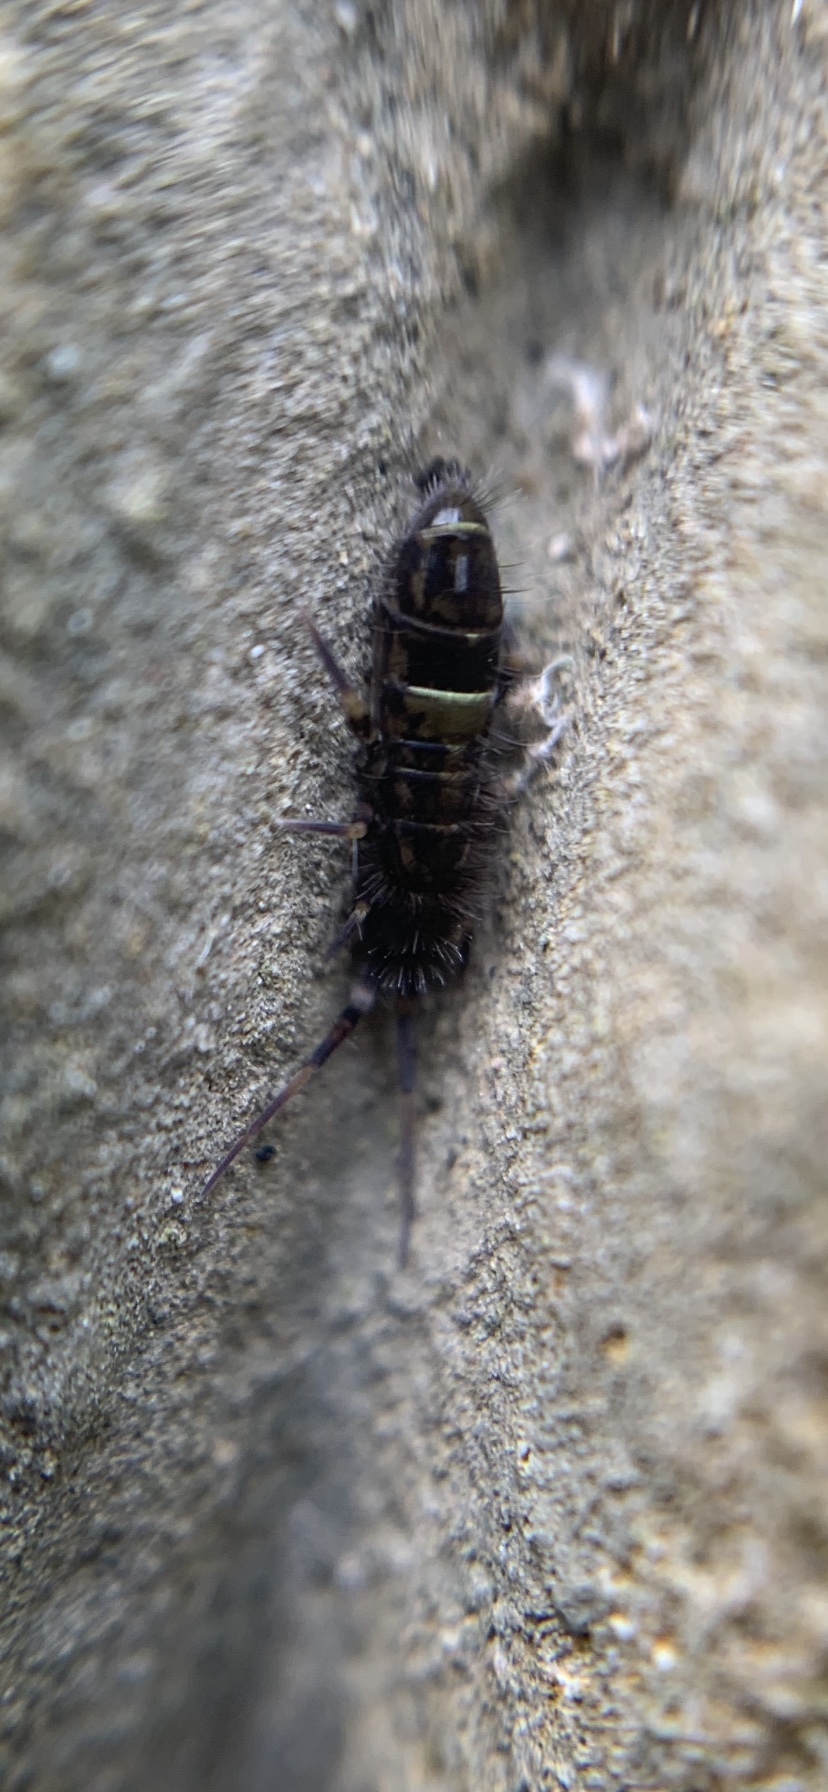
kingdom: Animalia
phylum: Arthropoda
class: Collembola
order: Entomobryomorpha
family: Orchesellidae
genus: Orchesella
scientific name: Orchesella cincta
